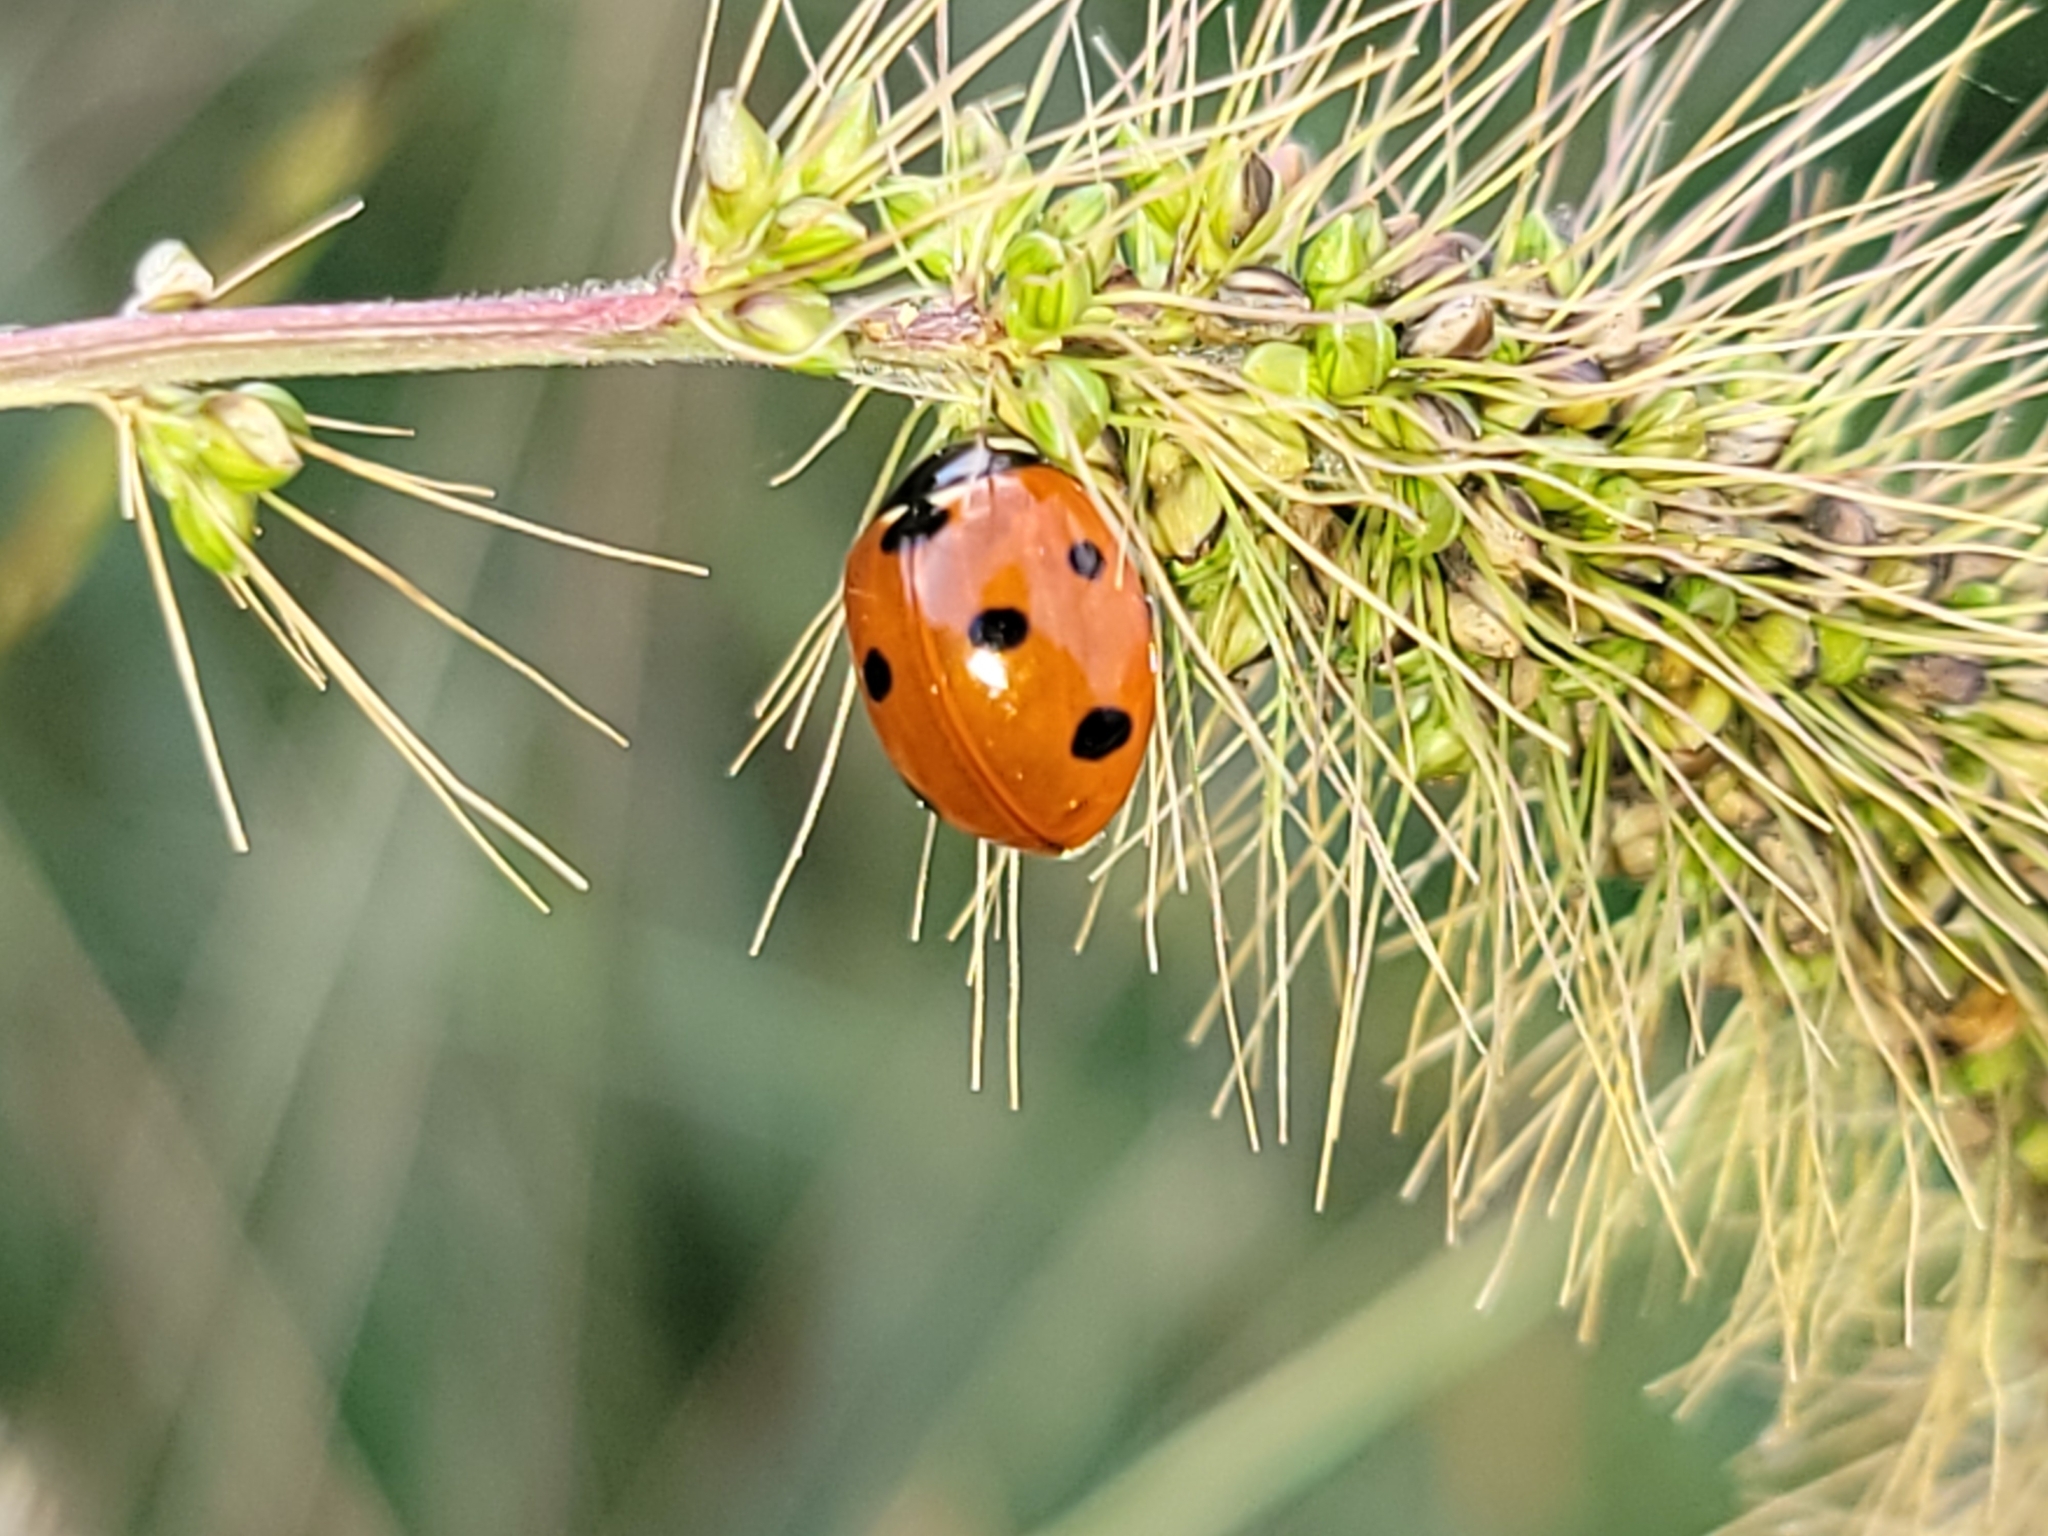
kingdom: Animalia
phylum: Arthropoda
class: Insecta
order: Coleoptera
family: Coccinellidae
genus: Coccinella
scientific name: Coccinella septempunctata
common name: Sevenspotted lady beetle
